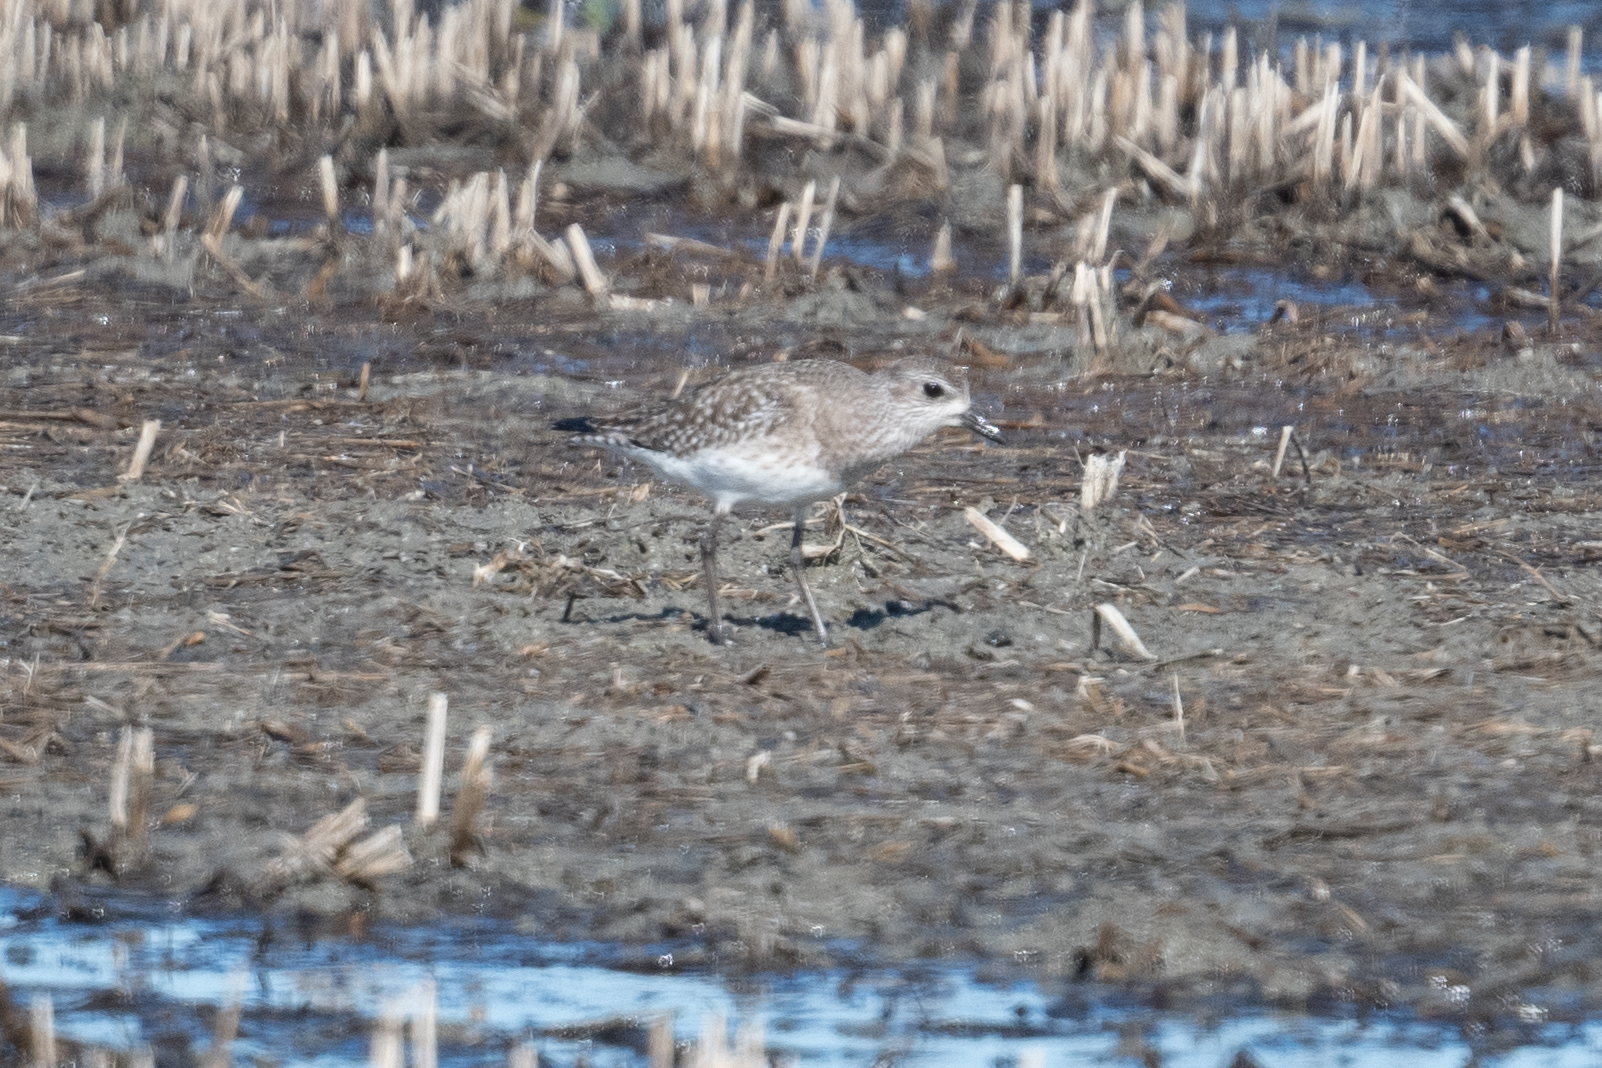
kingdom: Animalia
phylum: Chordata
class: Aves
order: Charadriiformes
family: Charadriidae
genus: Pluvialis
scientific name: Pluvialis squatarola
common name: Grey plover
